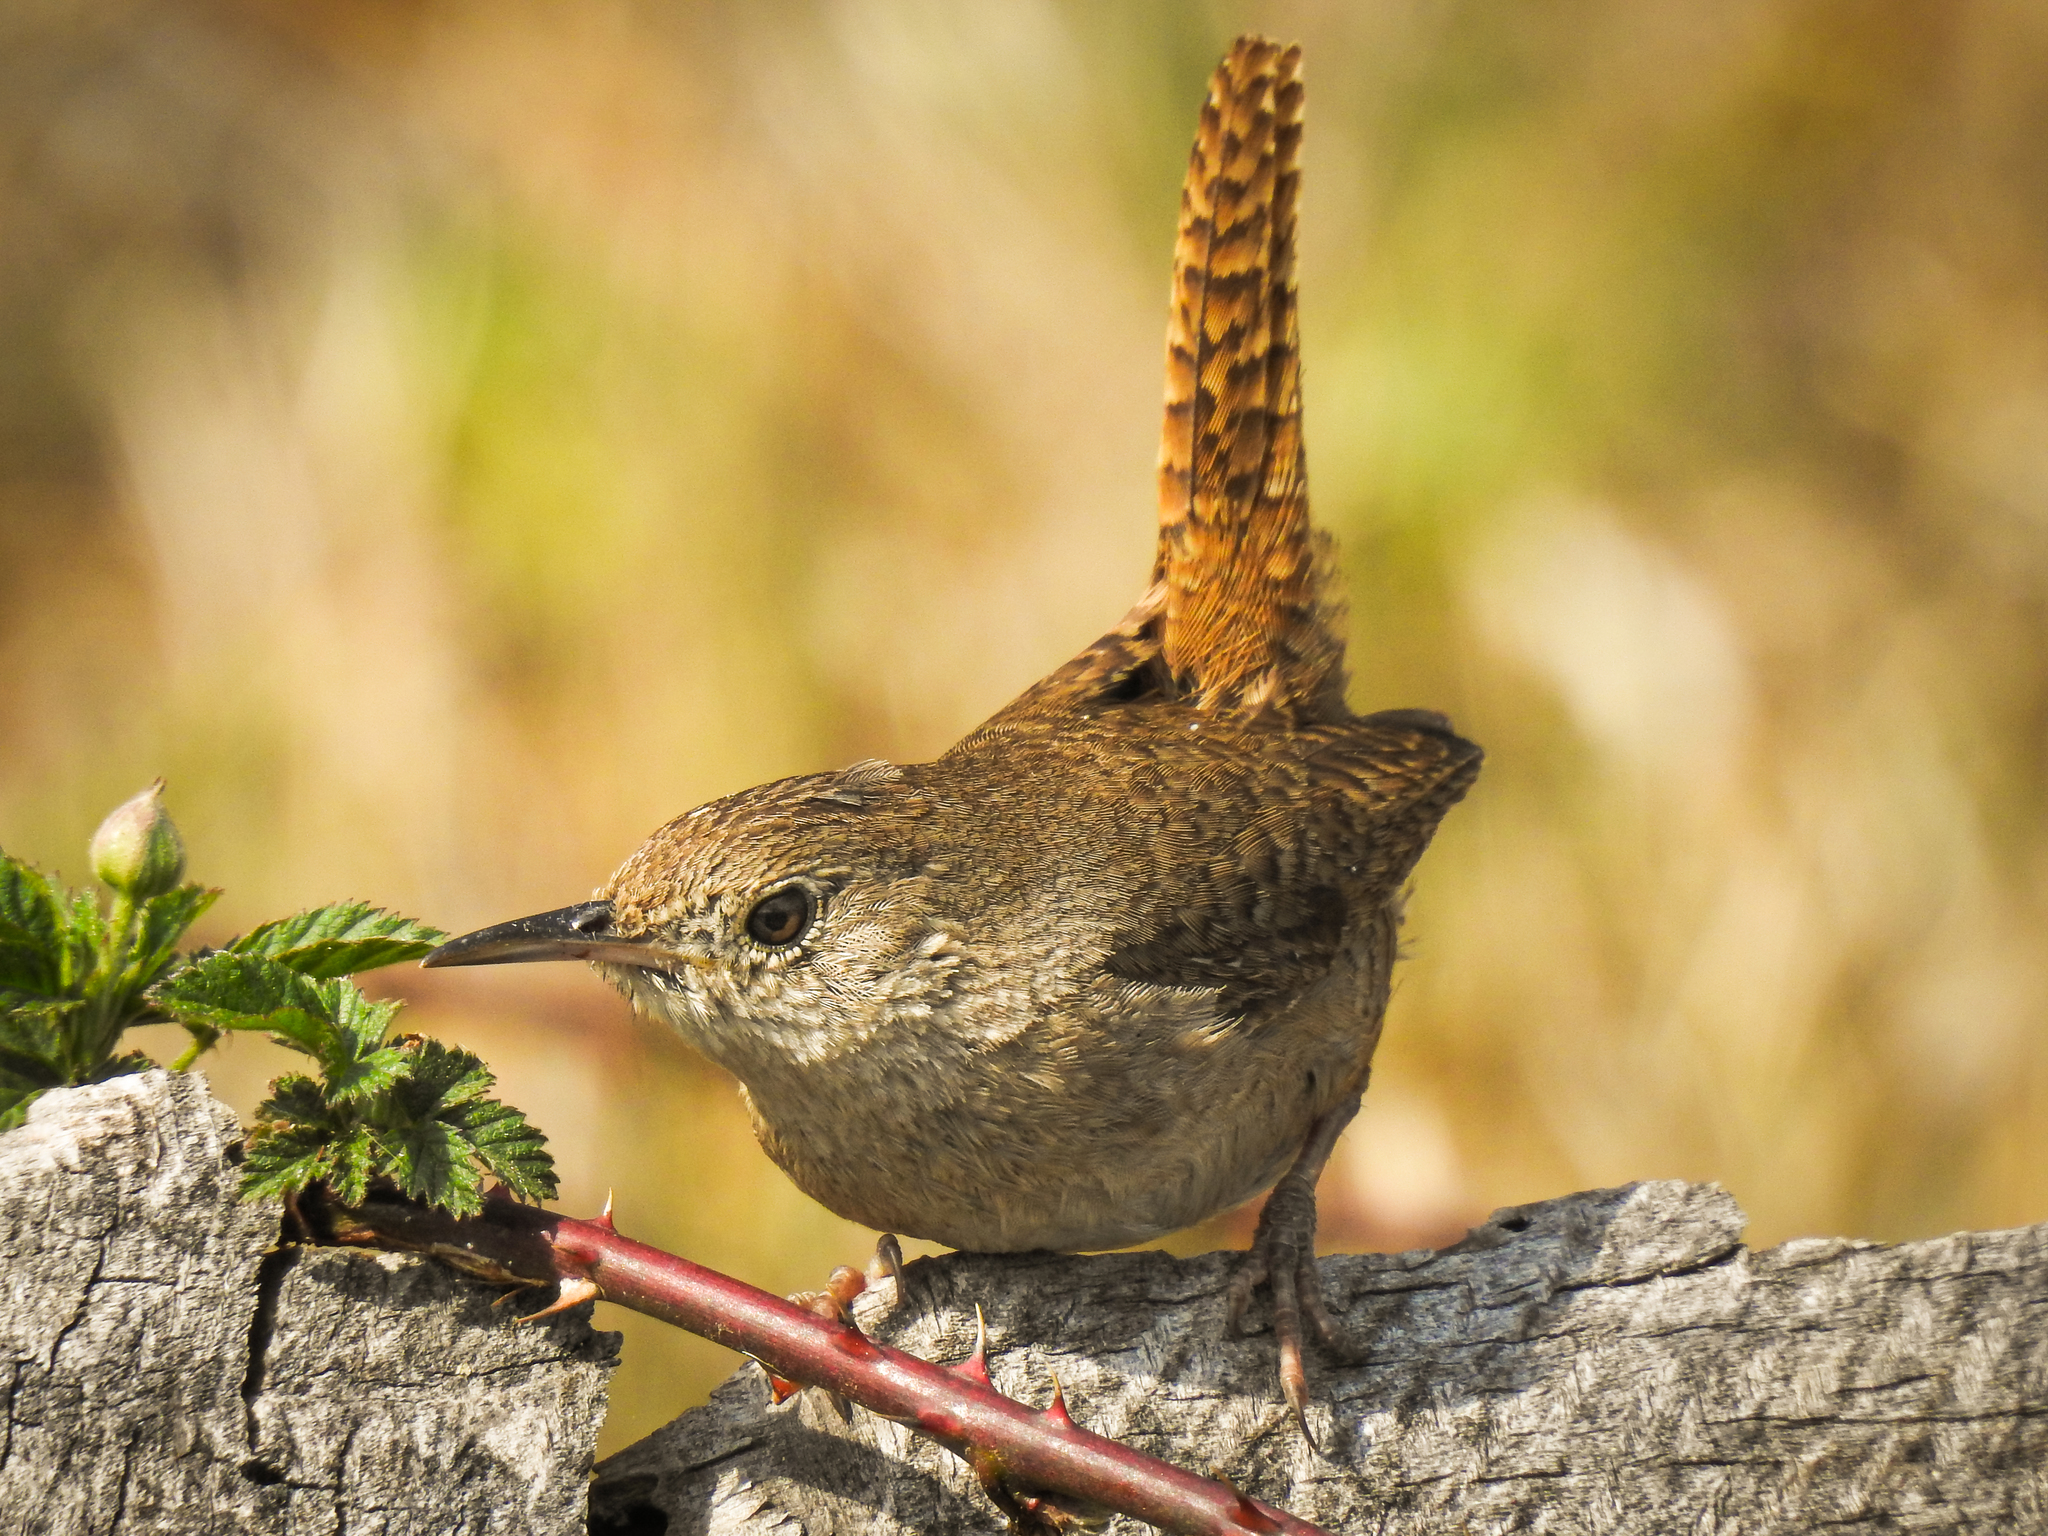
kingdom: Animalia
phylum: Chordata
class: Aves
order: Passeriformes
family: Troglodytidae
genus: Troglodytes
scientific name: Troglodytes aedon
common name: House wren
